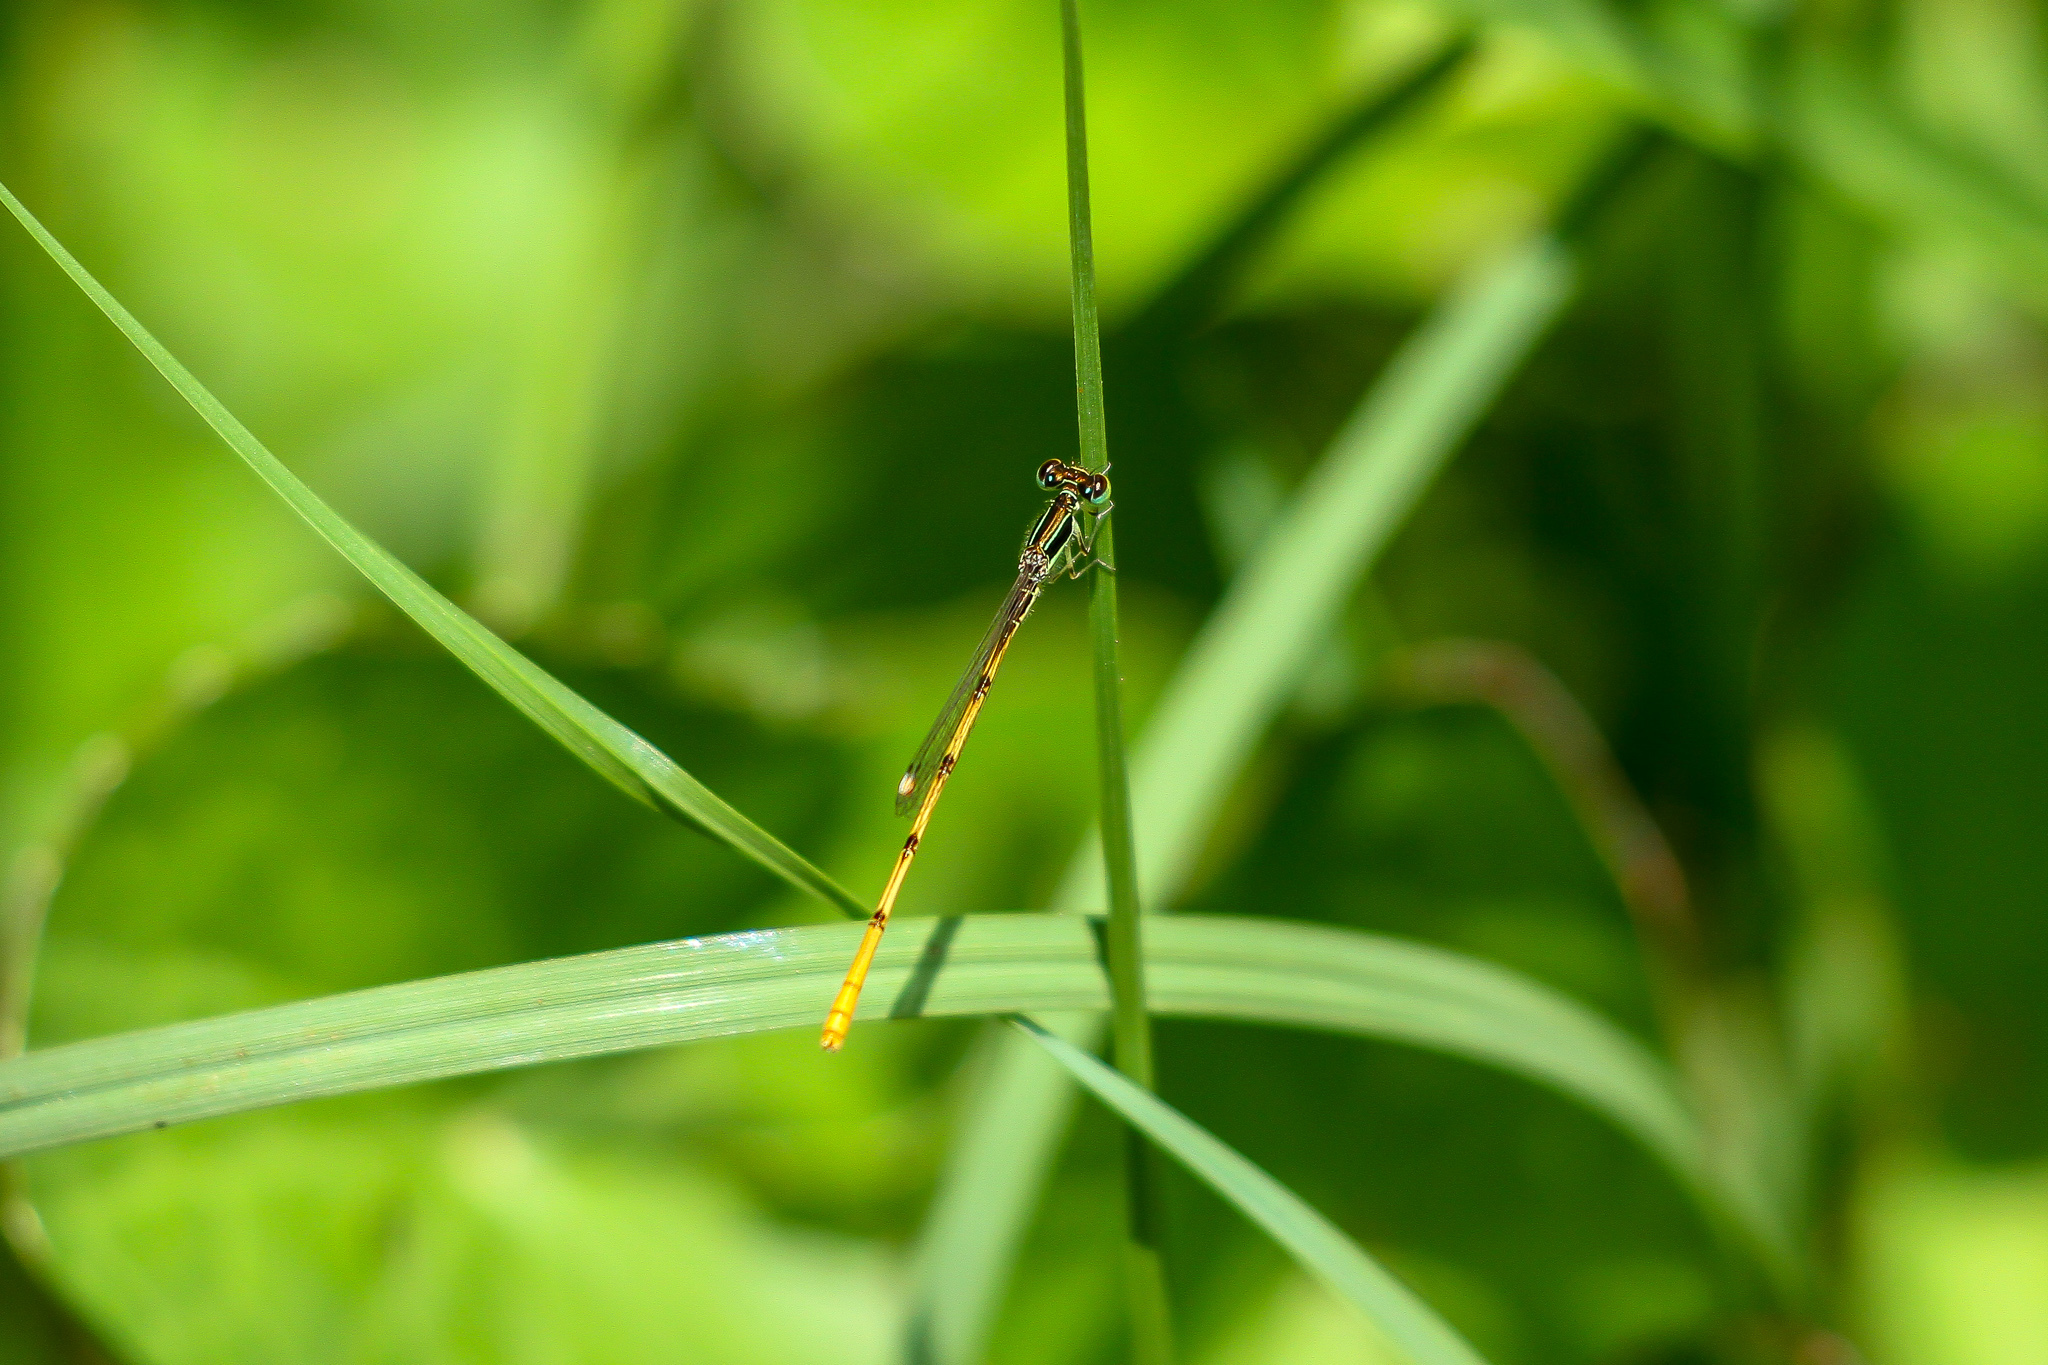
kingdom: Animalia
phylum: Arthropoda
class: Insecta
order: Odonata
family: Coenagrionidae
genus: Ischnura
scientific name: Ischnura hastata
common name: Citrine forktail
